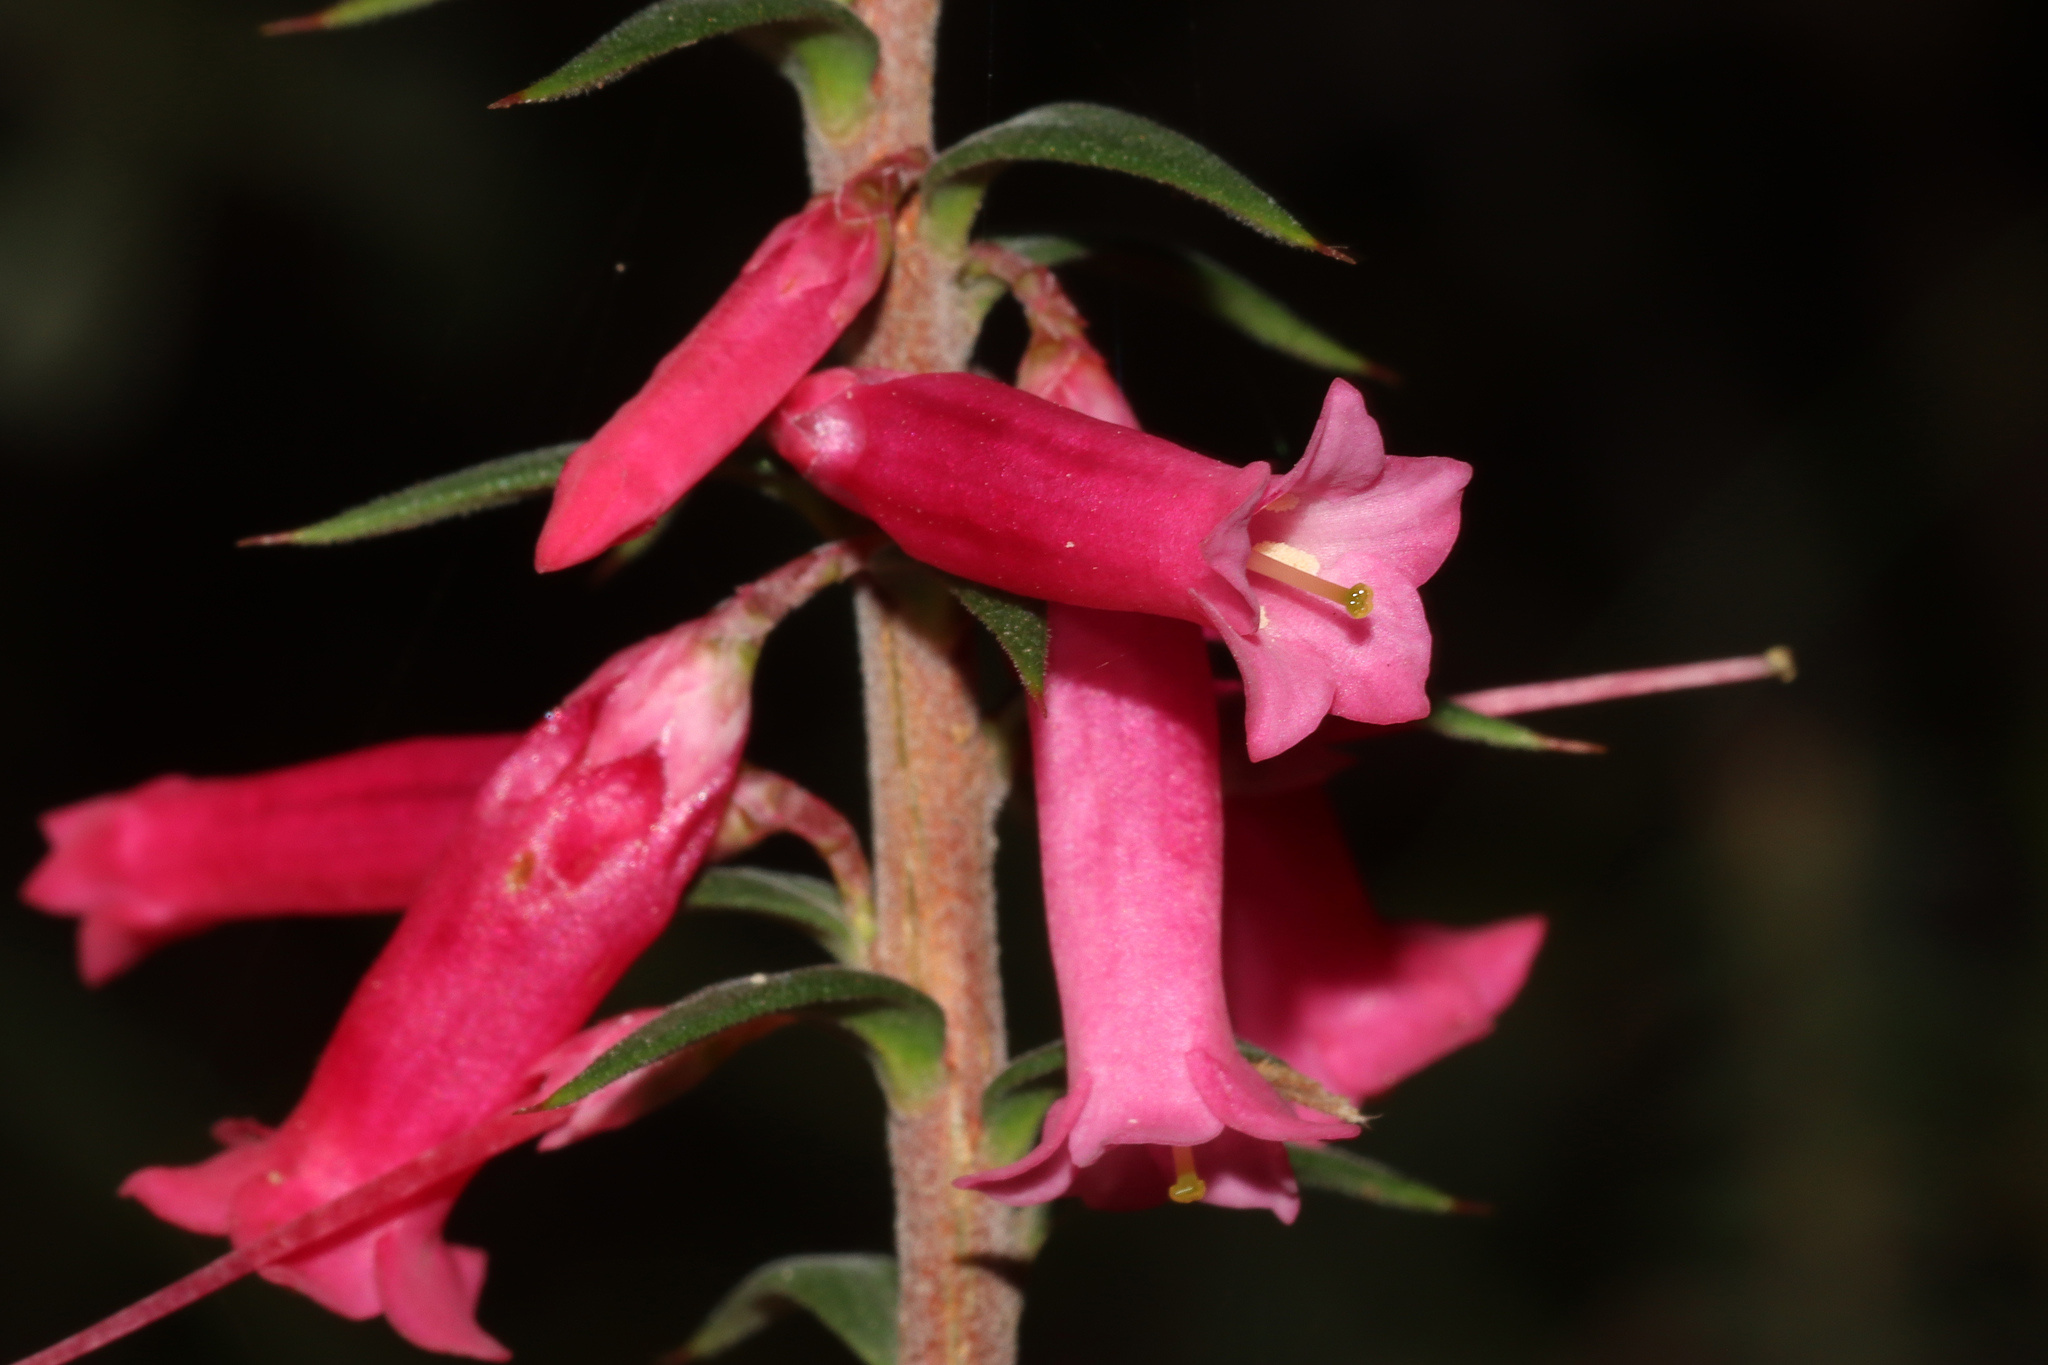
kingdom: Plantae
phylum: Tracheophyta
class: Magnoliopsida
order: Ericales
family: Ericaceae
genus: Epacris
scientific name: Epacris impressa
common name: Common-heath
